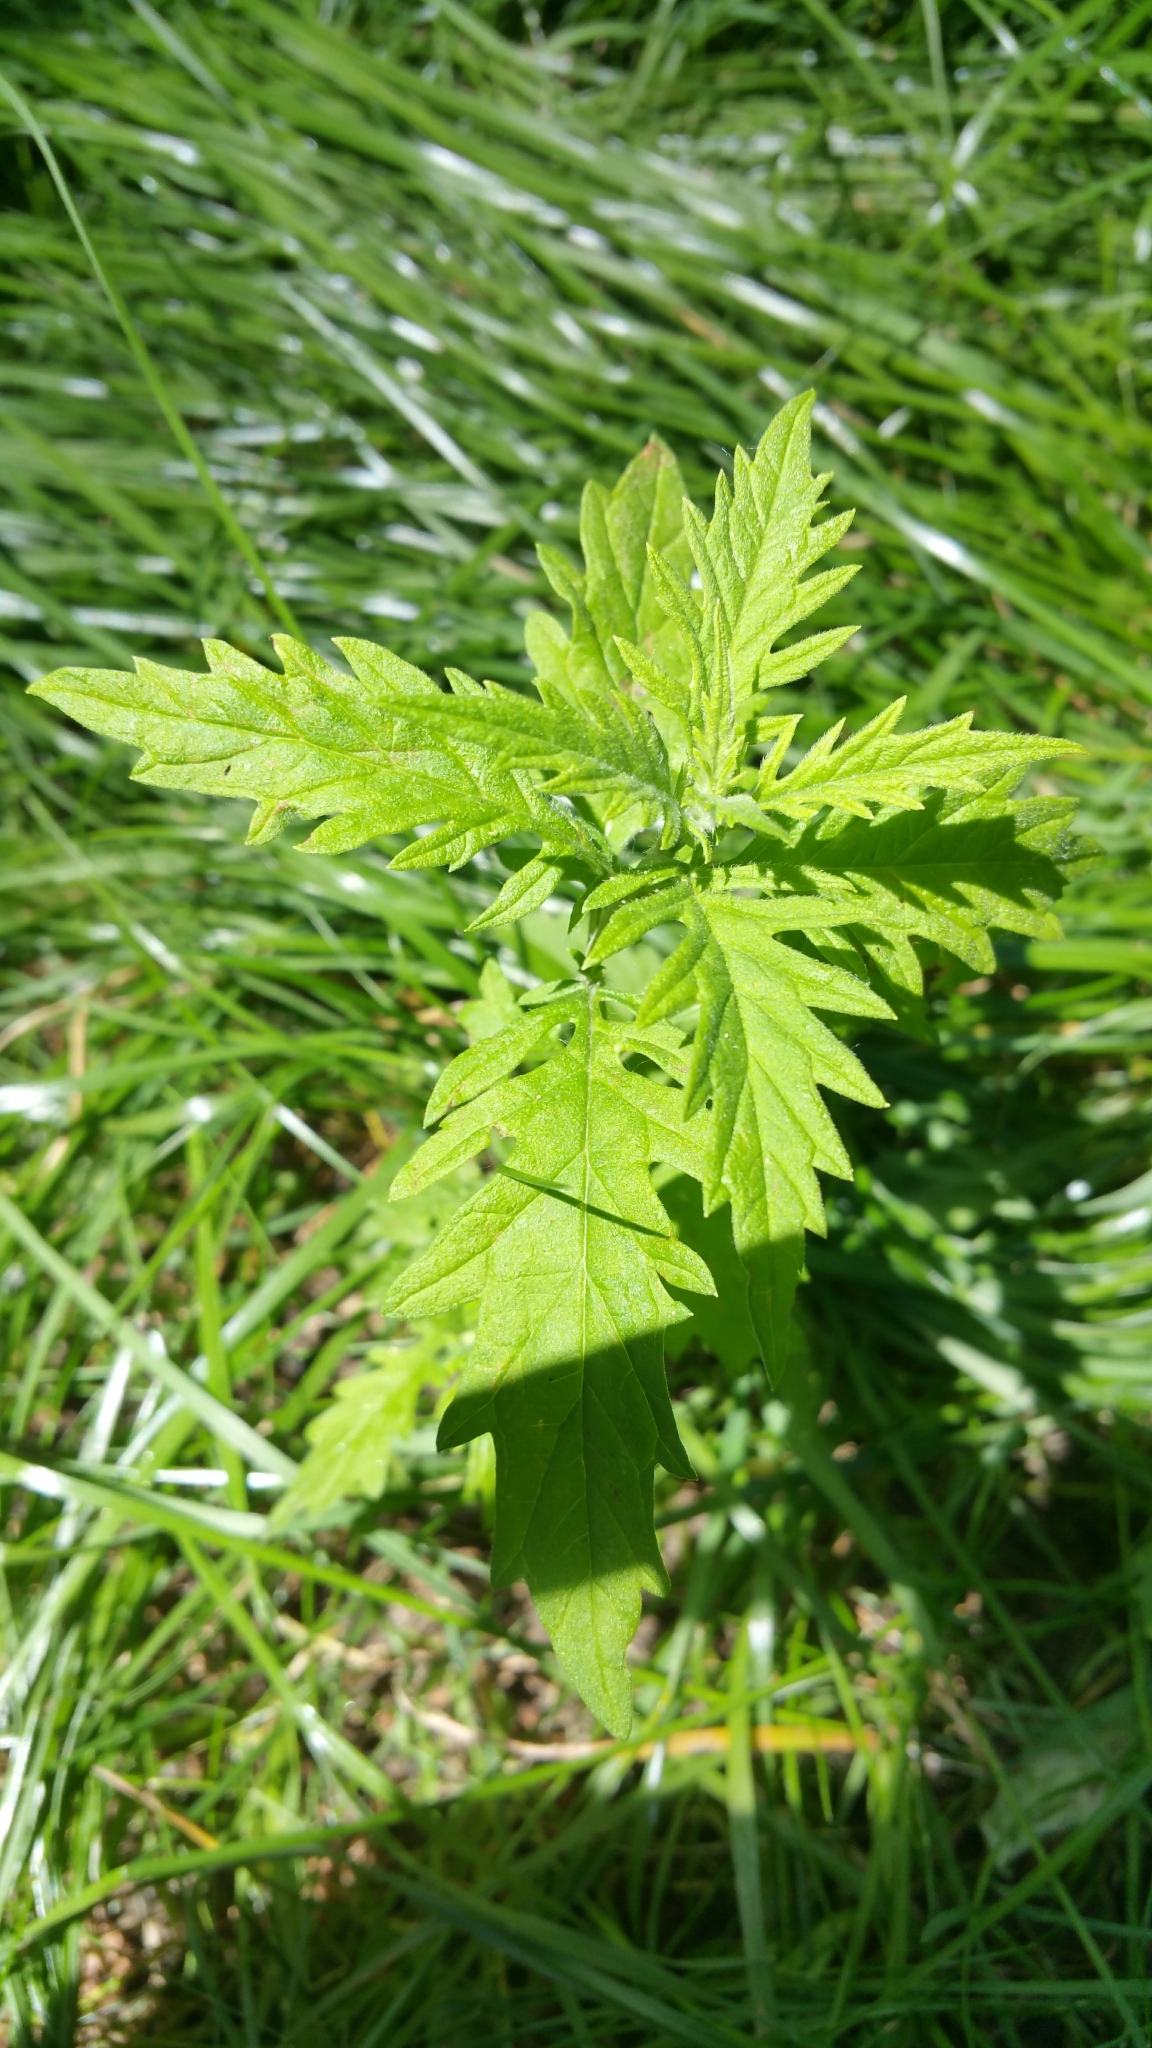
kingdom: Plantae
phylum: Tracheophyta
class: Magnoliopsida
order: Lamiales
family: Lamiaceae
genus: Lycopus
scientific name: Lycopus exaltatus
